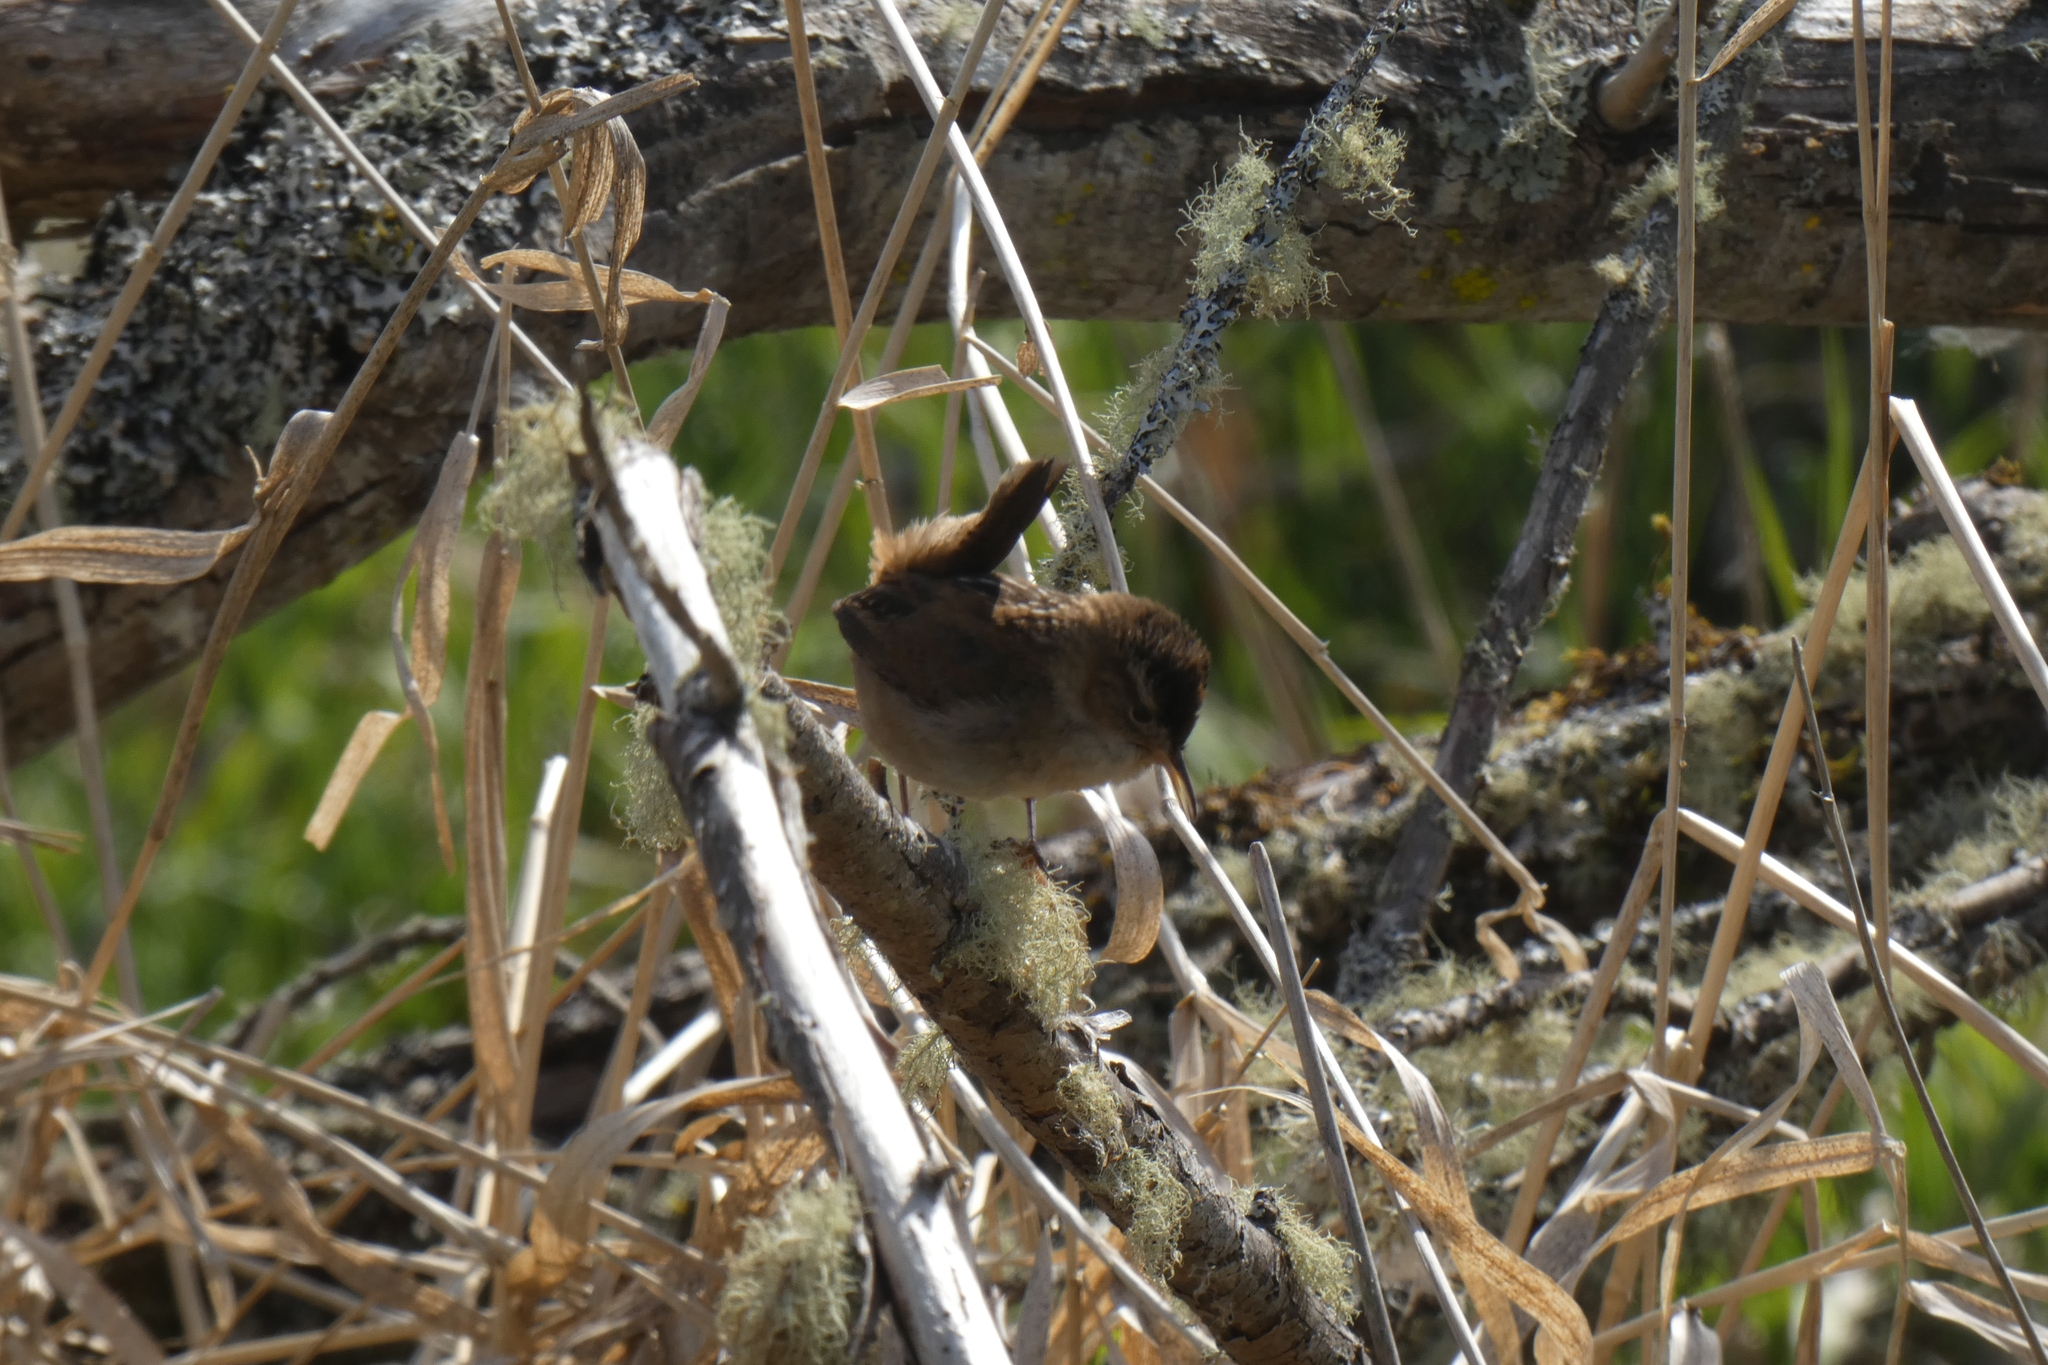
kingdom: Animalia
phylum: Chordata
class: Aves
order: Passeriformes
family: Troglodytidae
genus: Cistothorus
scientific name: Cistothorus palustris
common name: Marsh wren
